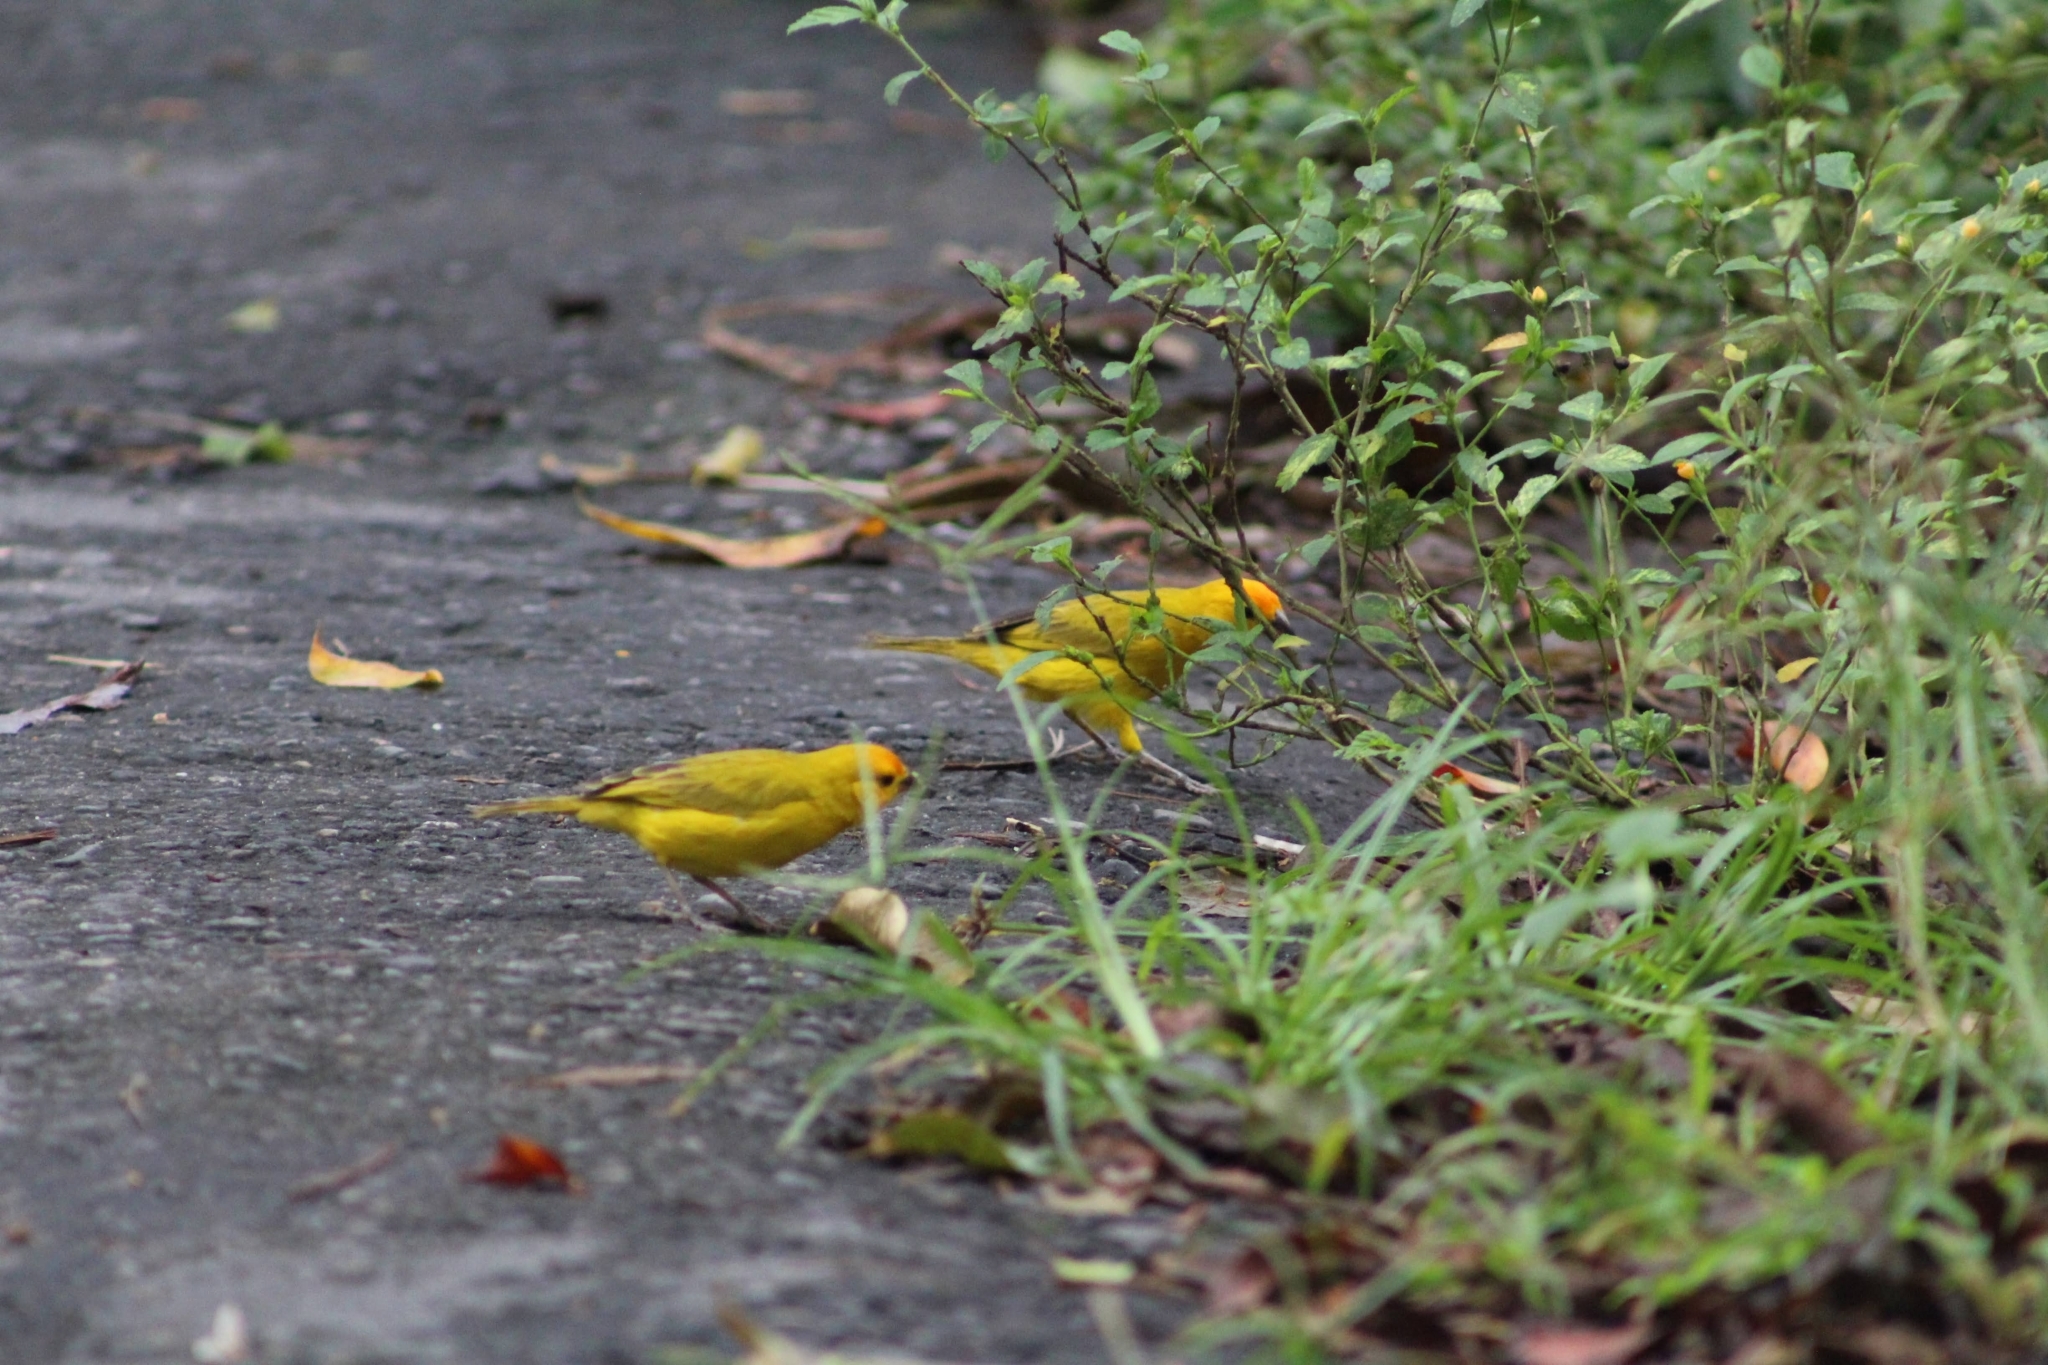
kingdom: Animalia
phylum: Chordata
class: Aves
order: Passeriformes
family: Thraupidae
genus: Sicalis
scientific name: Sicalis flaveola
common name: Saffron finch
